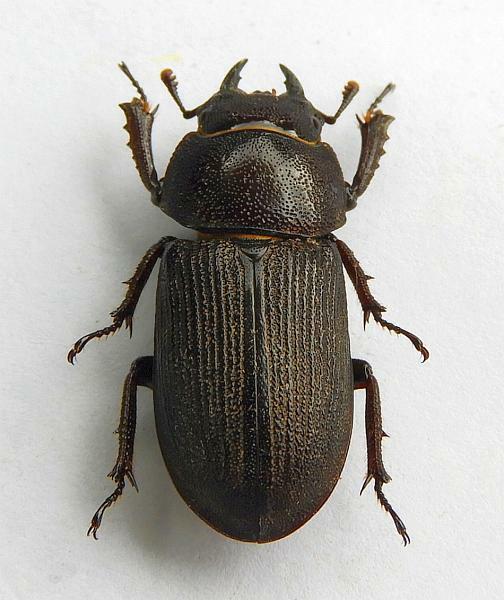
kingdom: Animalia
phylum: Arthropoda
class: Insecta
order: Coleoptera
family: Lucanidae
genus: Dorcus
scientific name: Dorcus parallelus
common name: Antelope beetle
